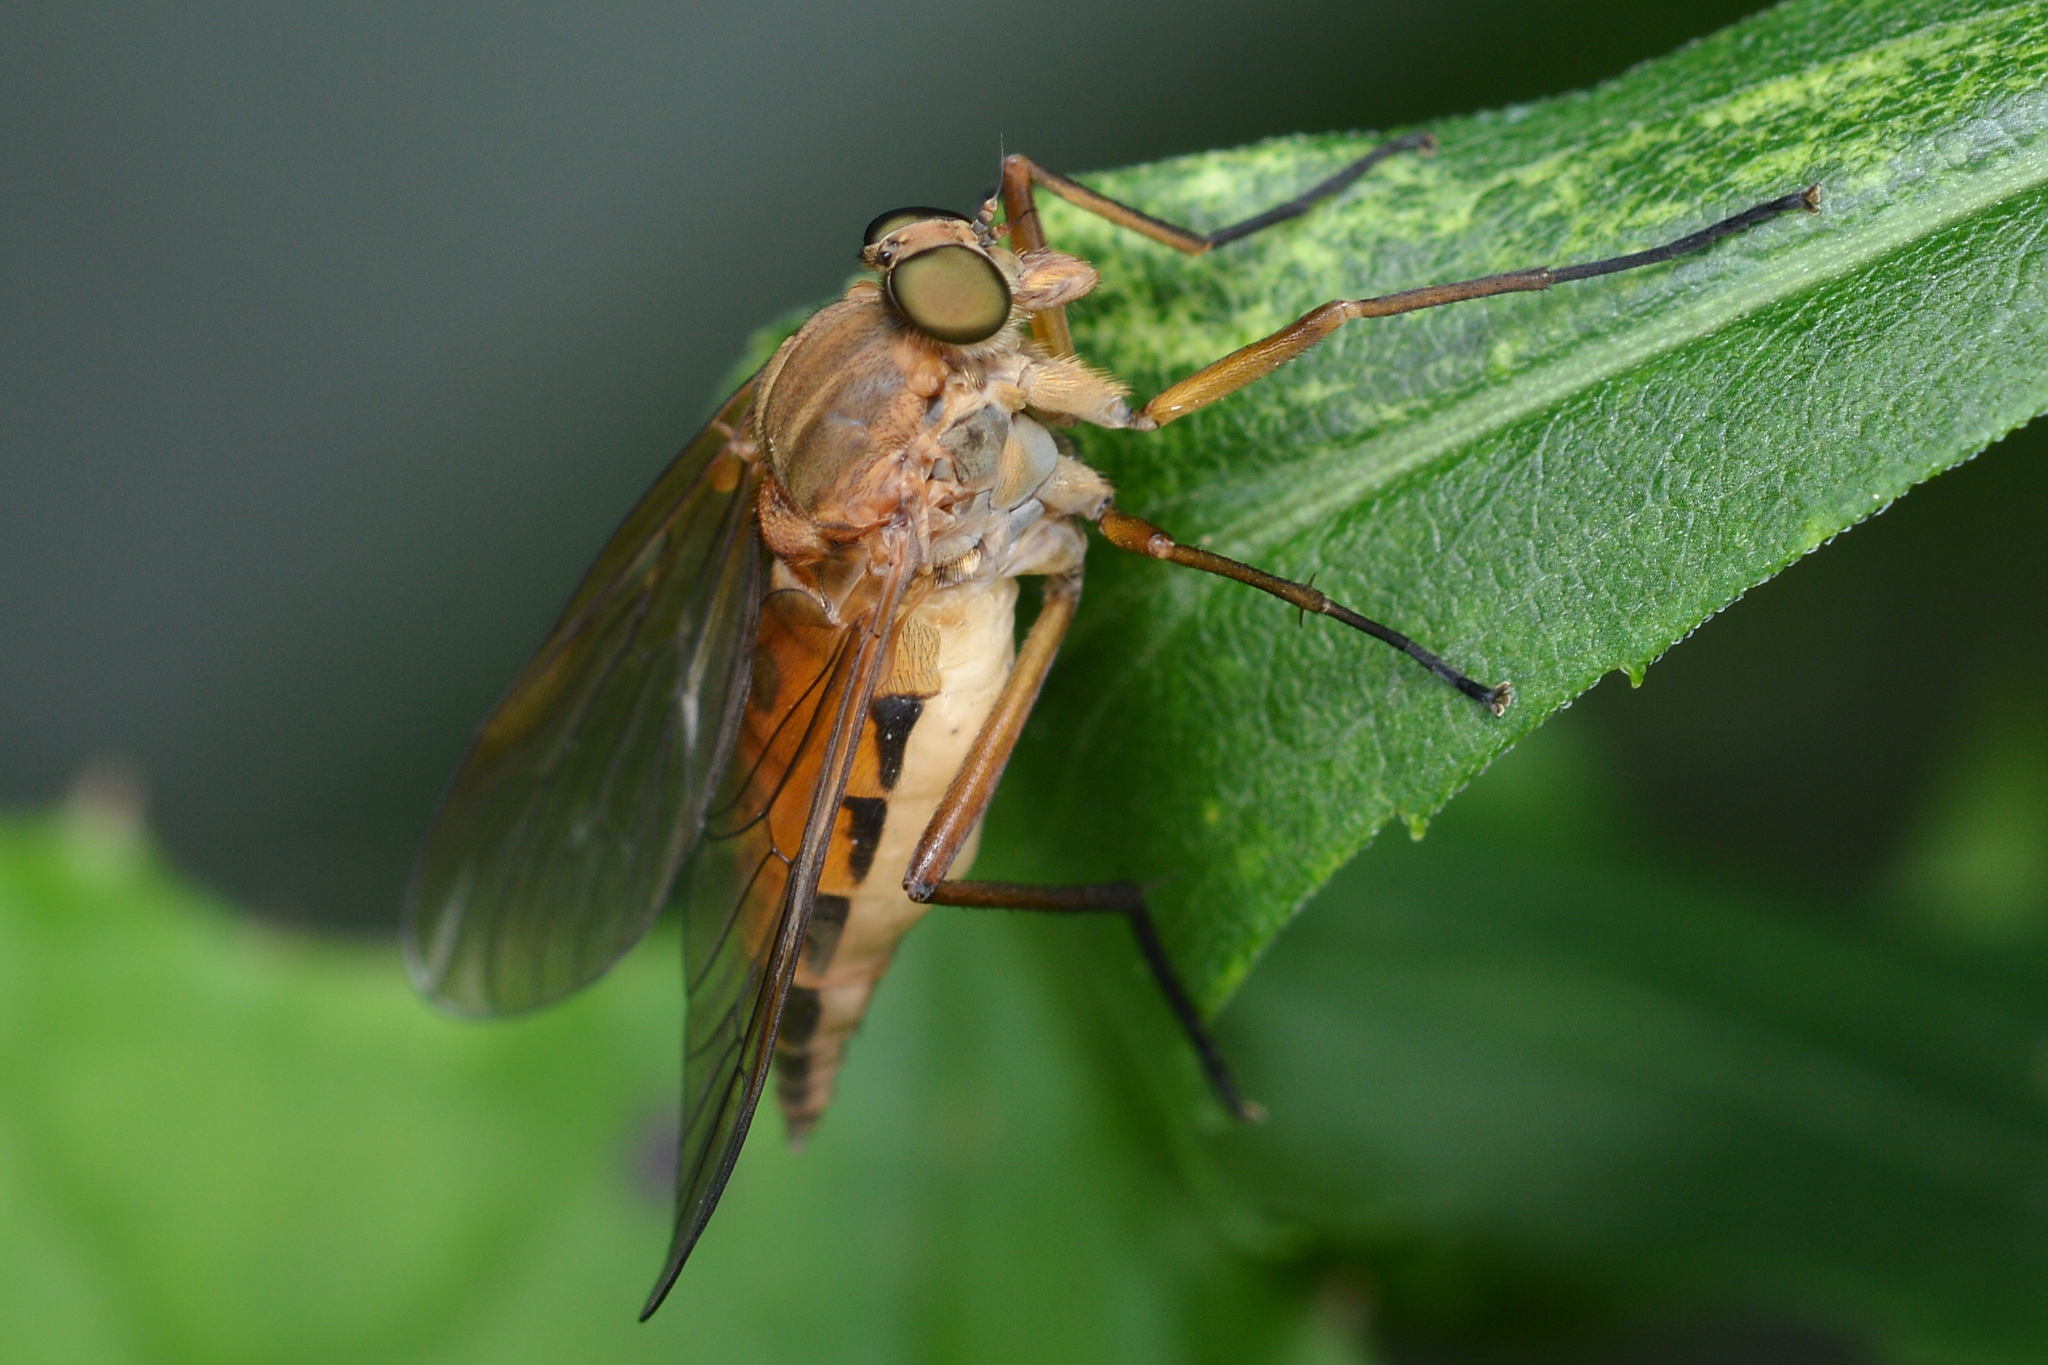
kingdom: Animalia
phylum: Arthropoda
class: Insecta
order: Diptera
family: Rhagionidae
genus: Rhagio
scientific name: Rhagio tringaria
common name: Marsh snipefly
